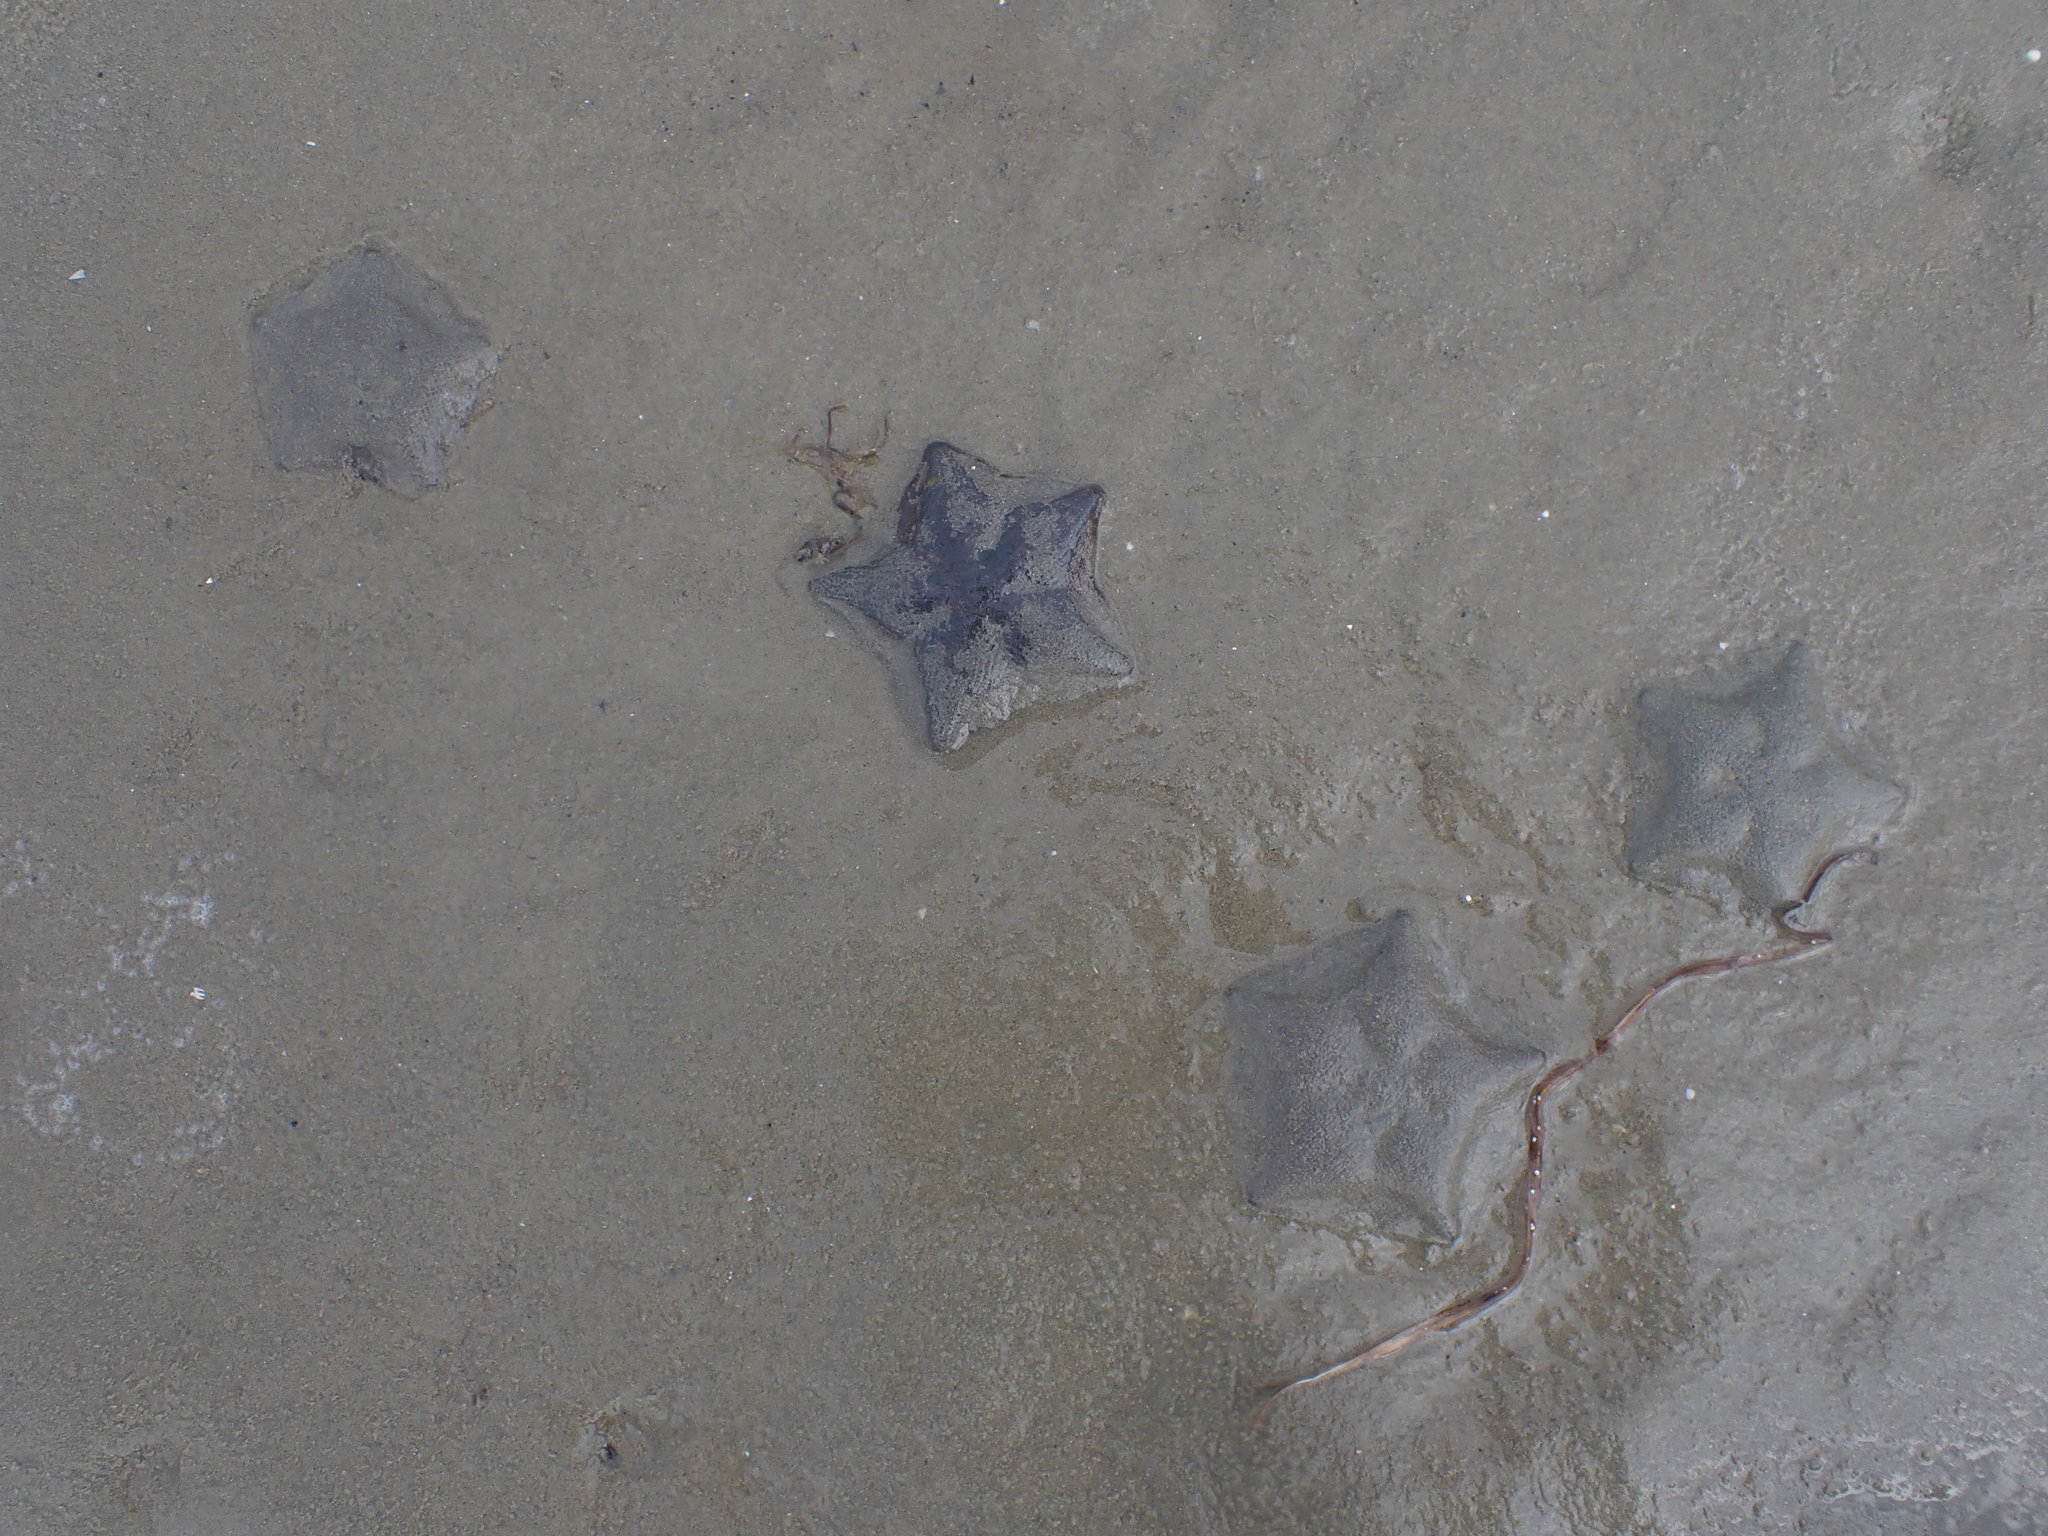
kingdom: Animalia
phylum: Echinodermata
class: Asteroidea
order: Valvatida
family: Asterinidae
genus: Patiriella
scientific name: Patiriella regularis
